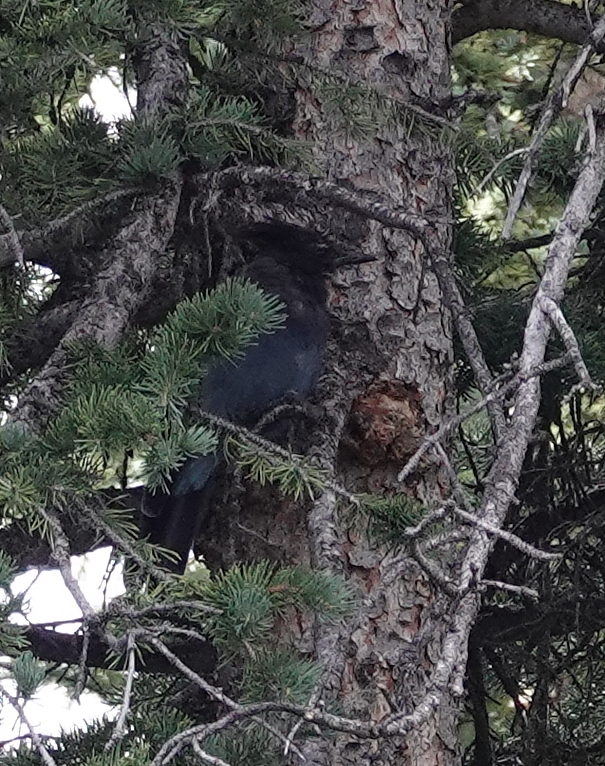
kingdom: Animalia
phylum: Chordata
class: Aves
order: Passeriformes
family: Corvidae
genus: Cyanocitta
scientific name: Cyanocitta stelleri
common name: Steller's jay
